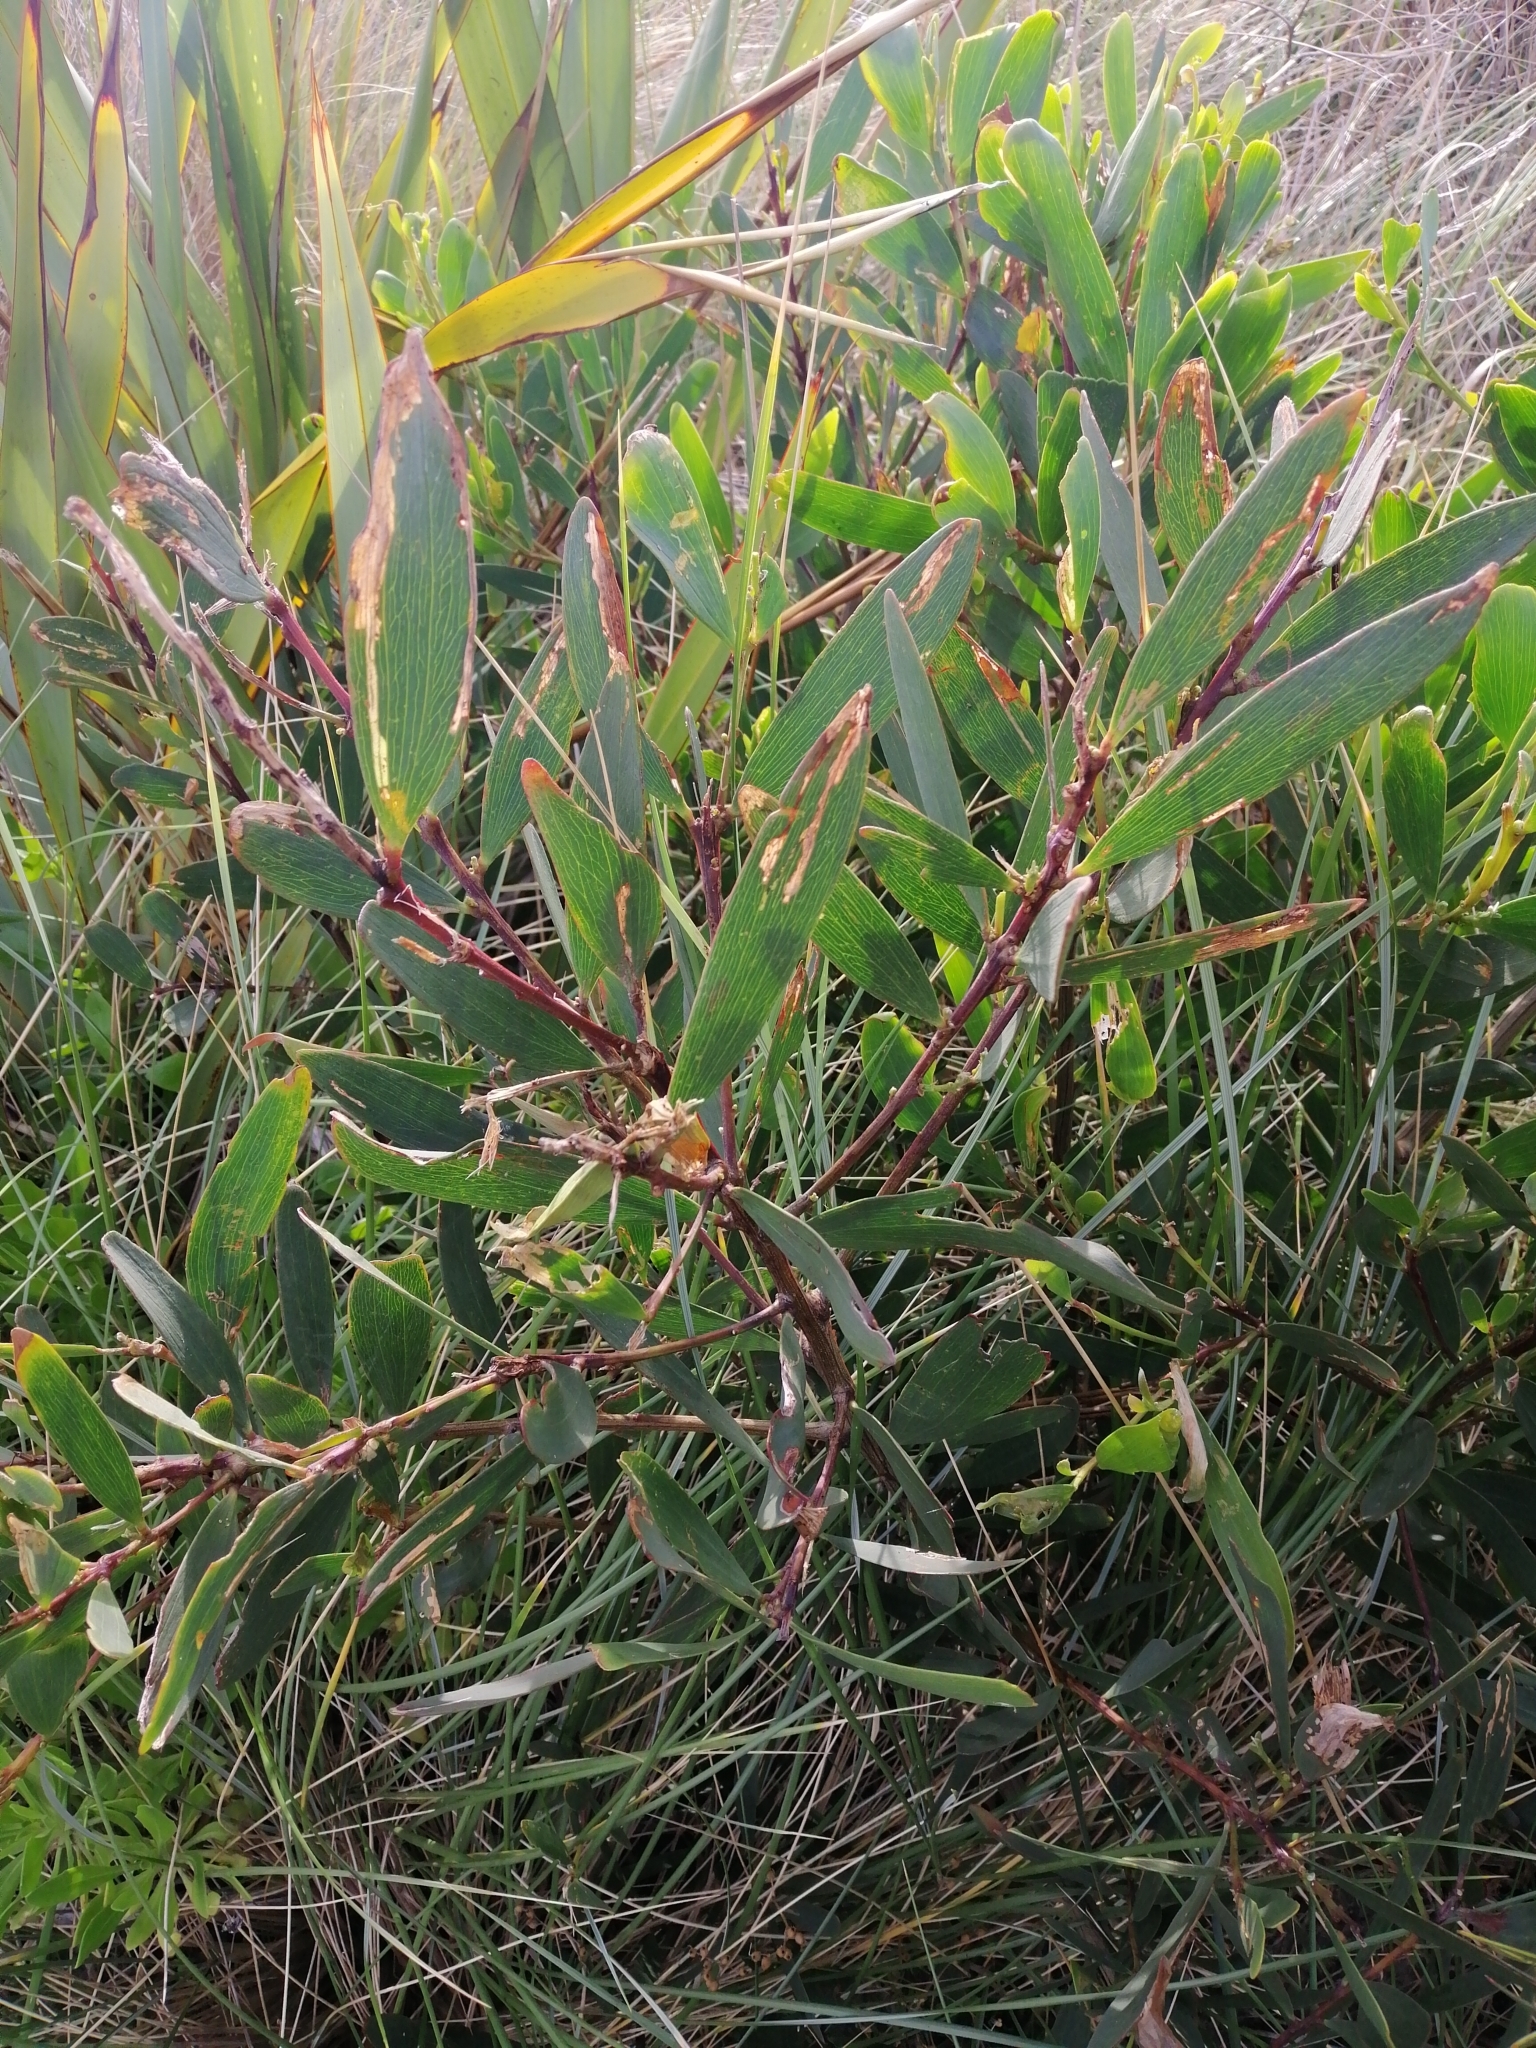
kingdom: Plantae
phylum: Tracheophyta
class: Magnoliopsida
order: Fabales
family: Fabaceae
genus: Acacia
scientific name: Acacia longifolia
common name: Sydney golden wattle
